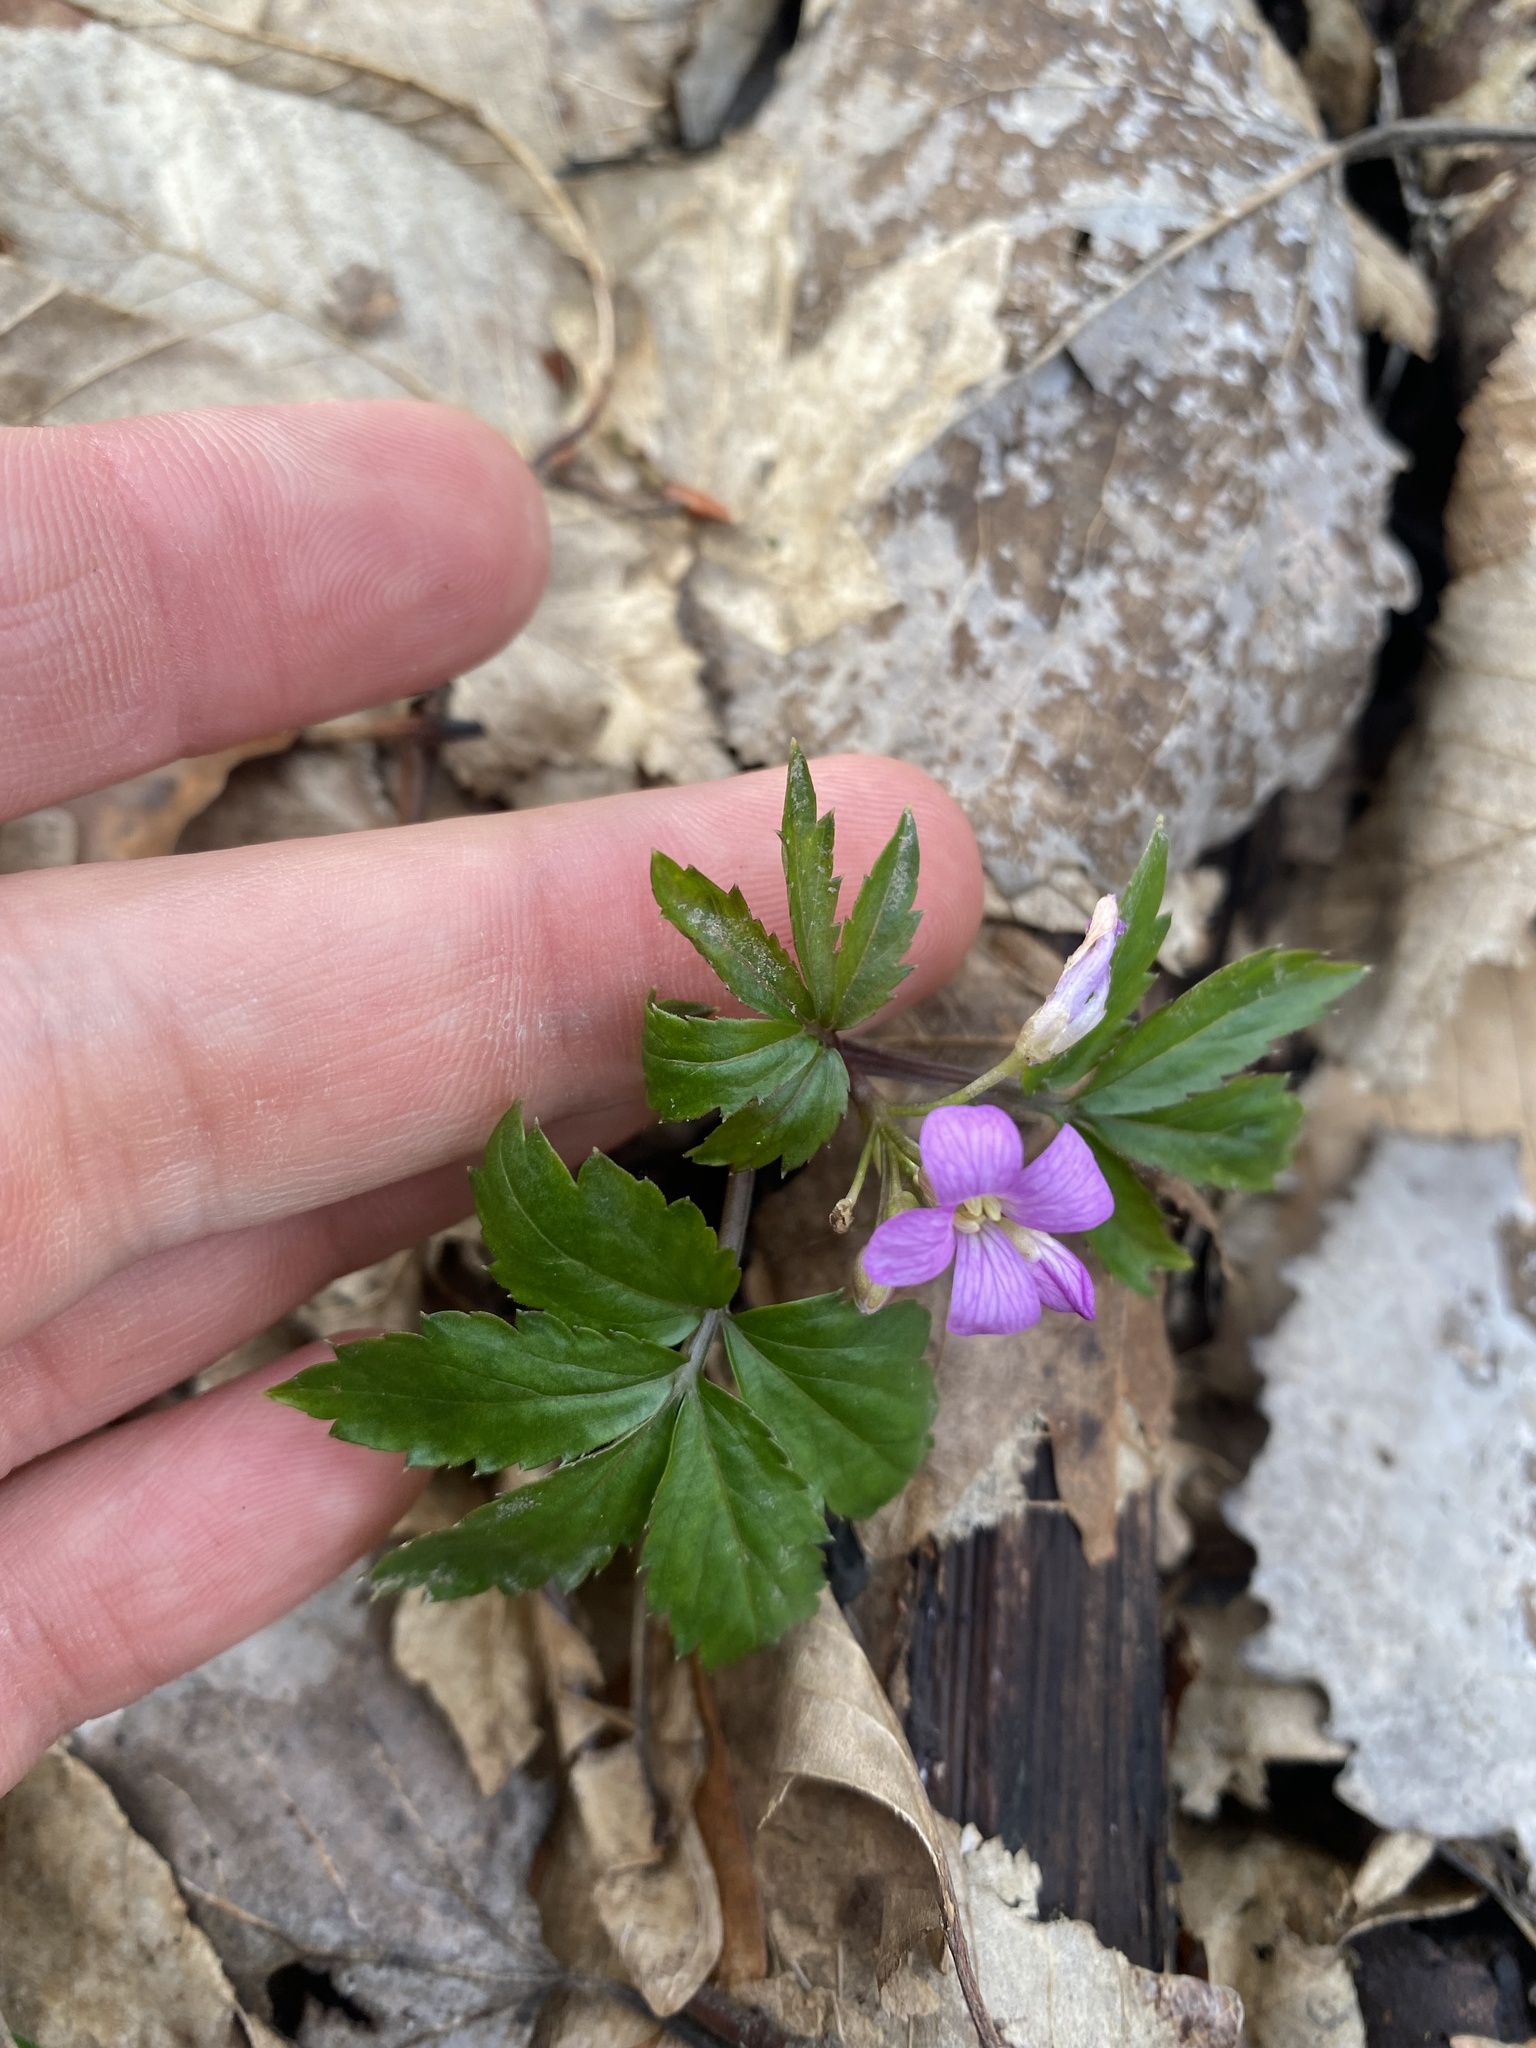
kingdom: Plantae
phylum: Tracheophyta
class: Magnoliopsida
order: Brassicales
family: Brassicaceae
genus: Cardamine
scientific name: Cardamine quinquefolia
